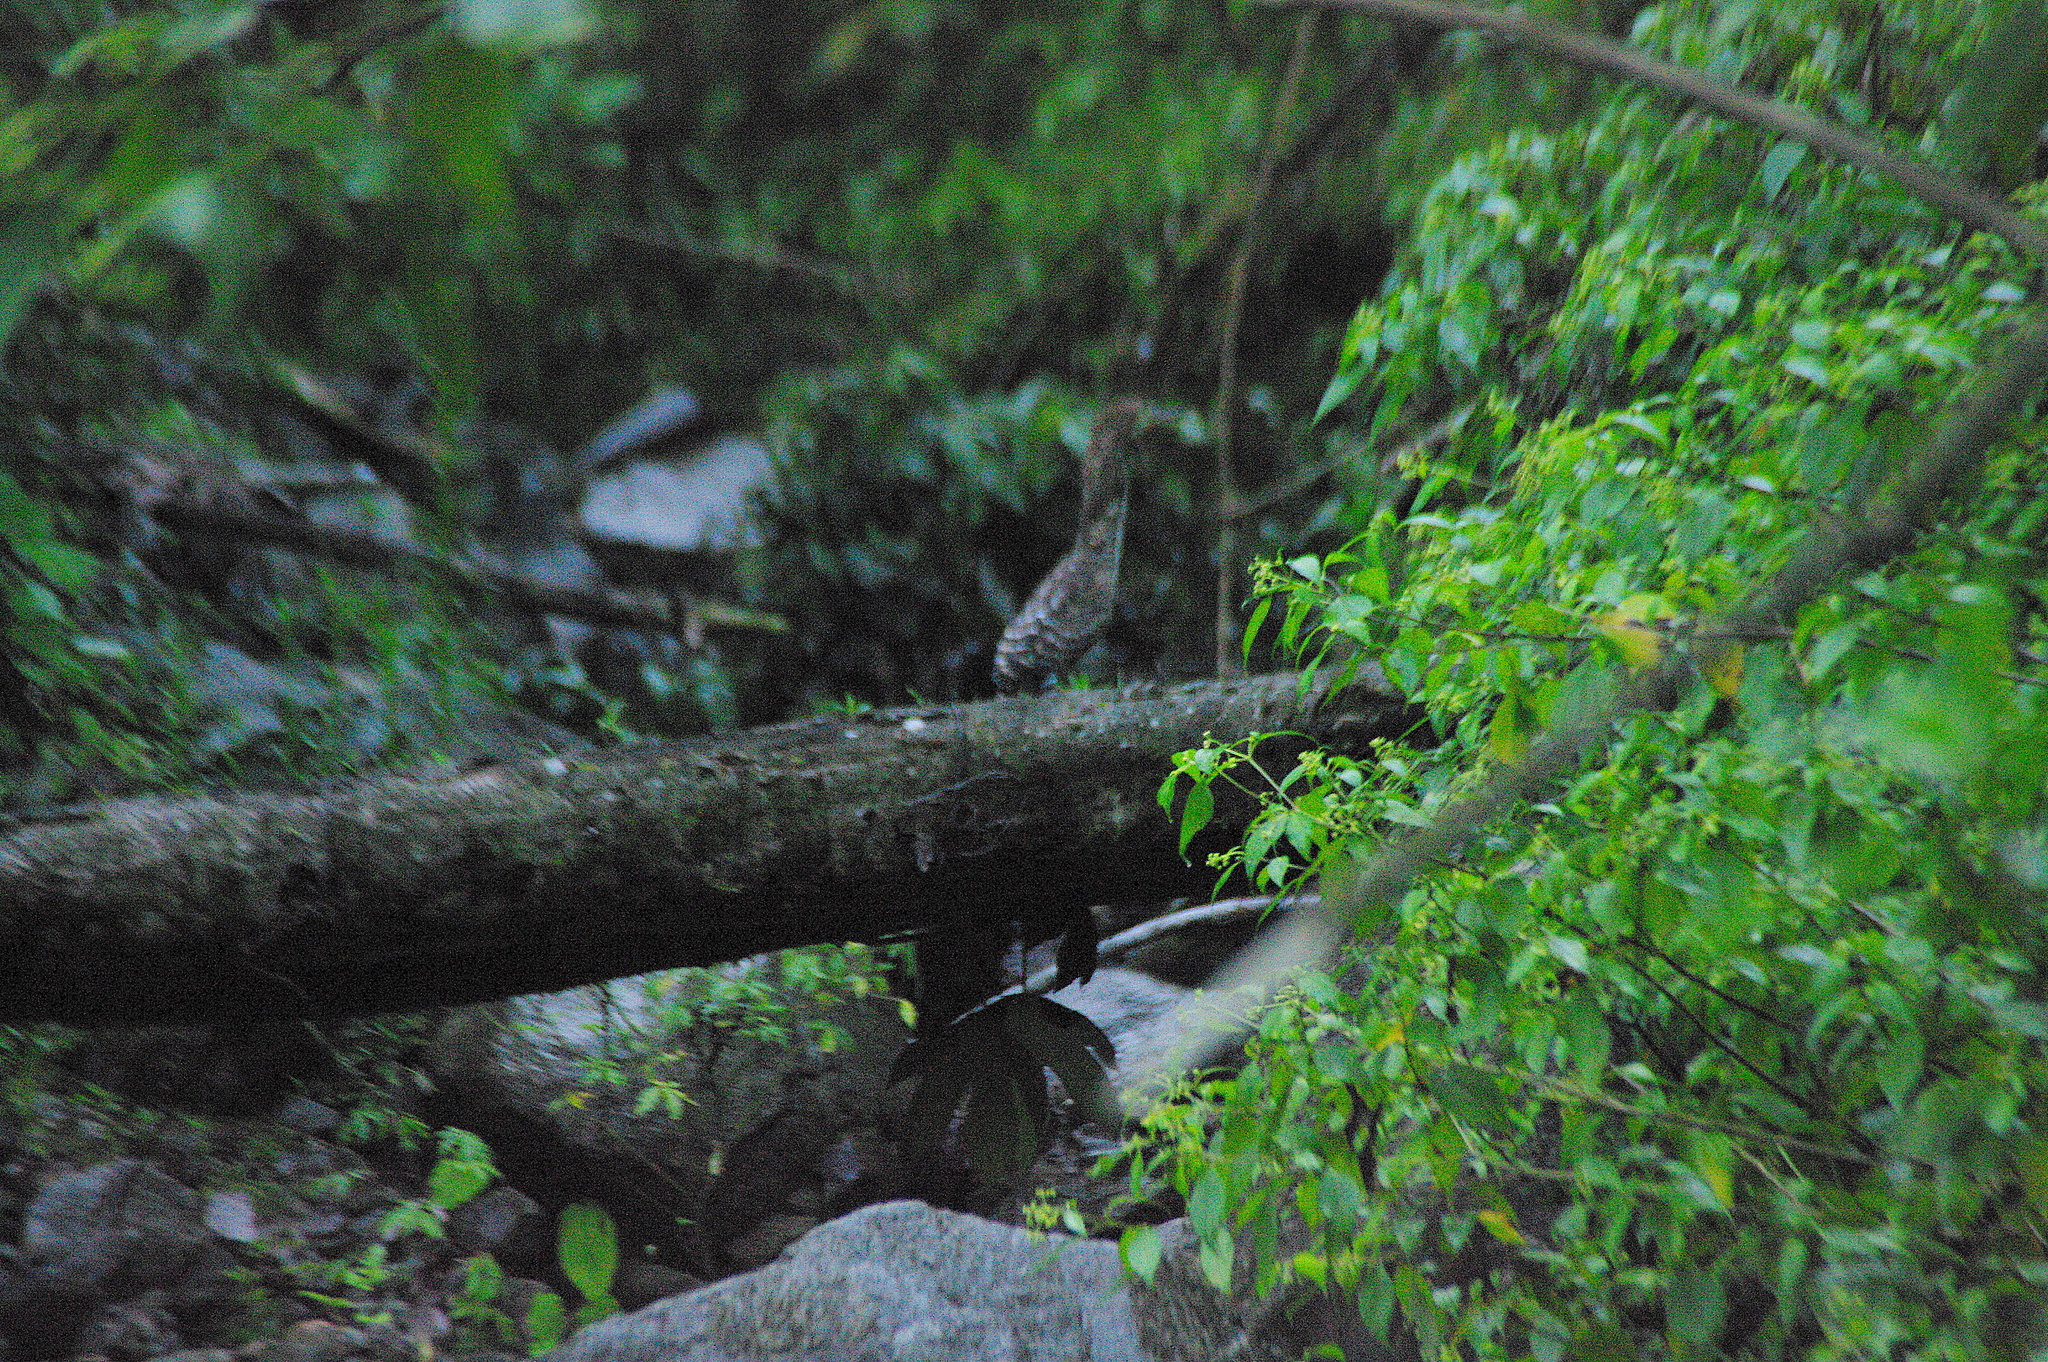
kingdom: Animalia
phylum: Chordata
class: Aves
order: Pelecaniformes
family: Ardeidae
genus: Tigrisoma
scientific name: Tigrisoma fasciatum
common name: Fasciated tiger-heron
